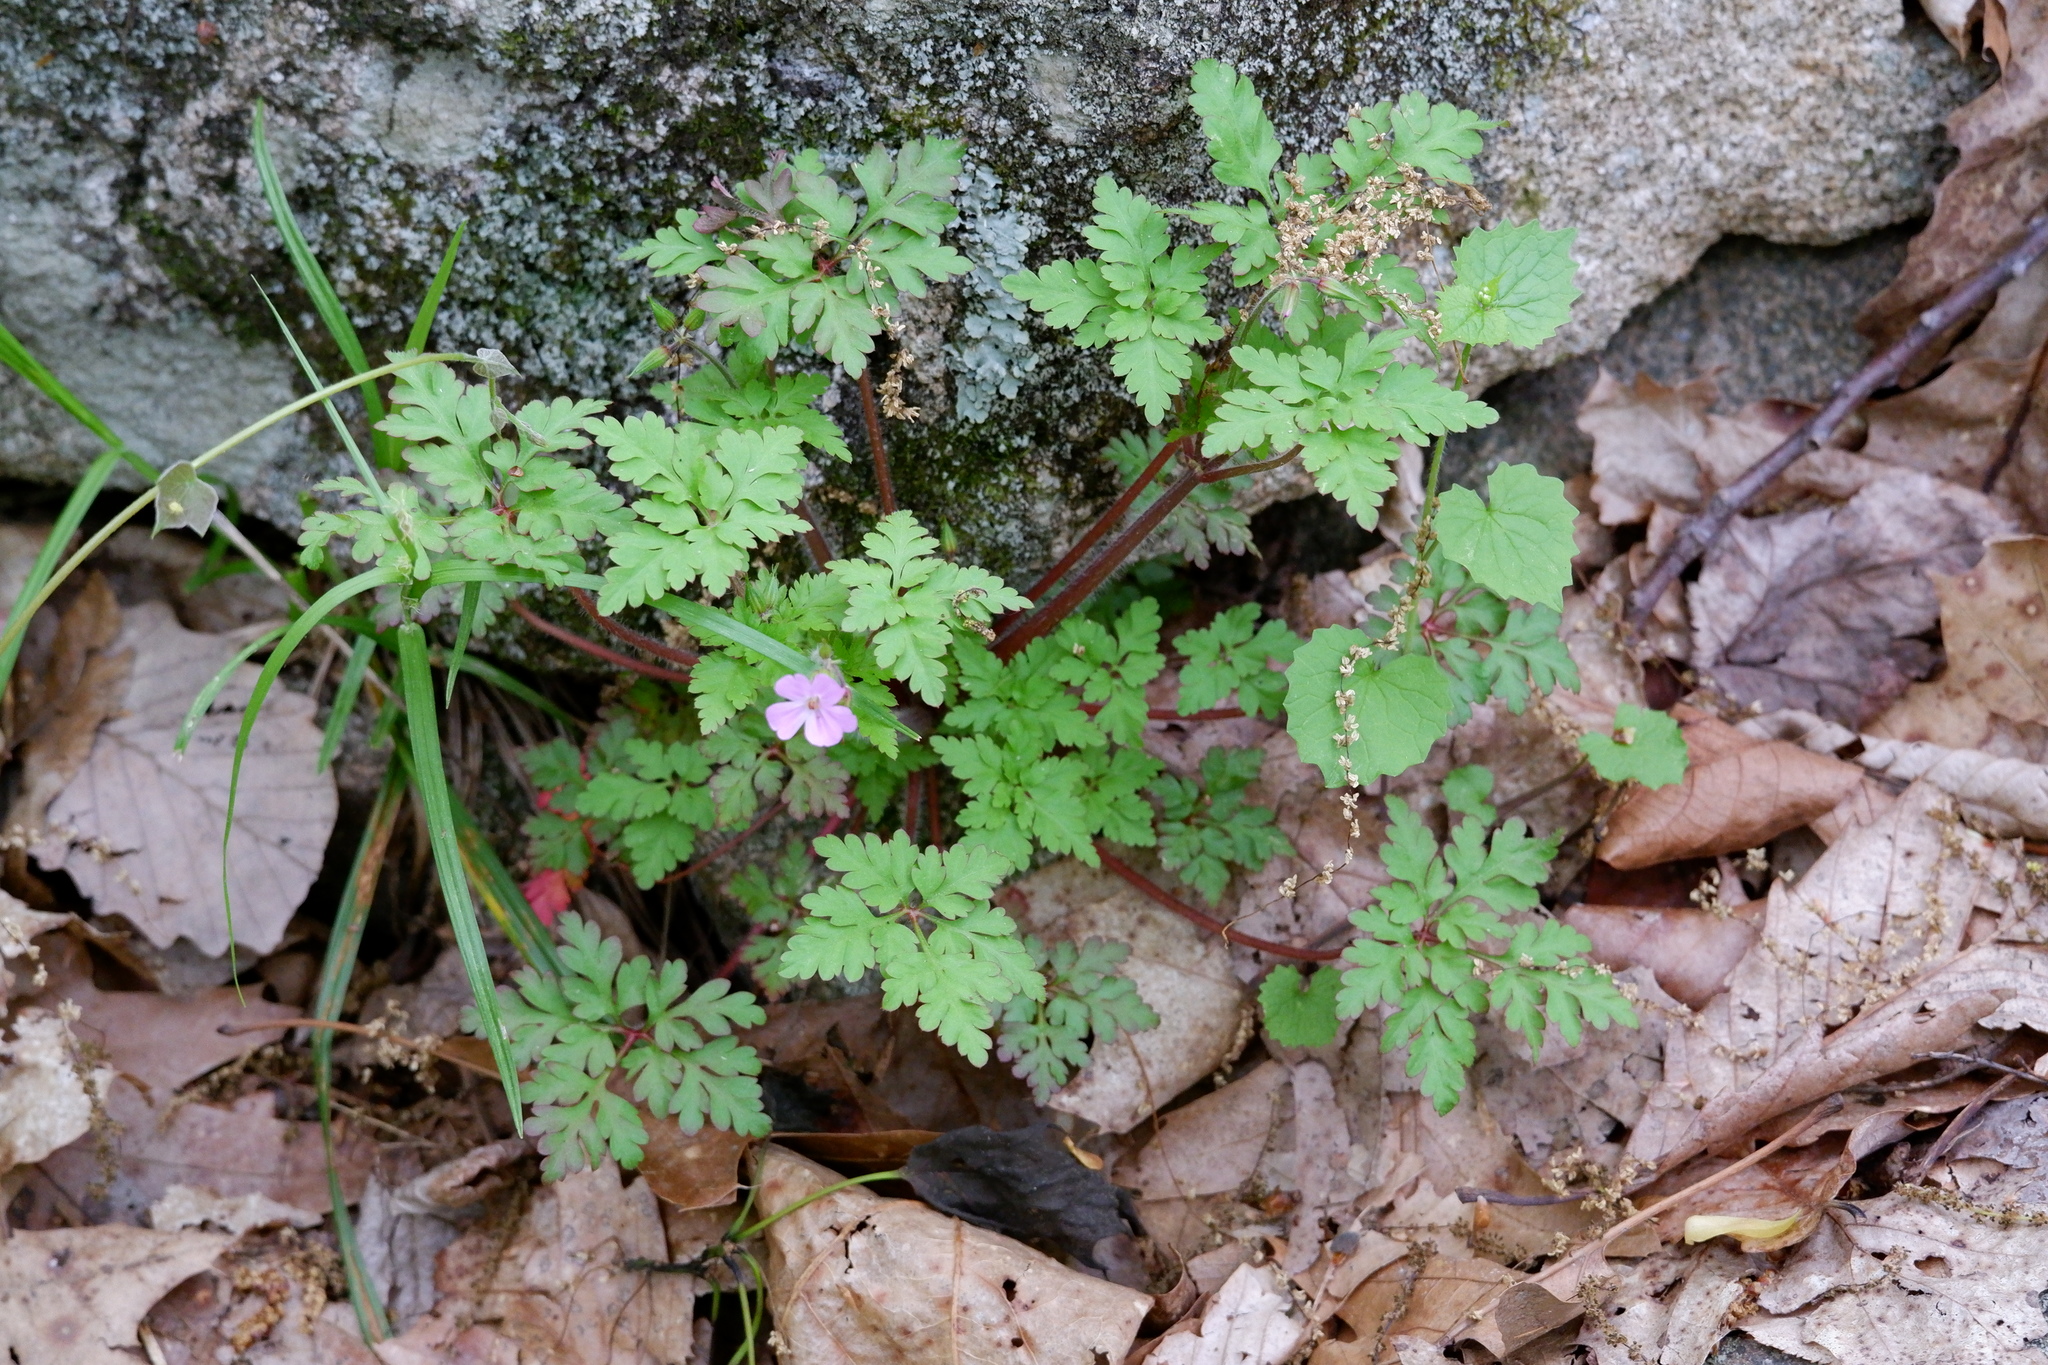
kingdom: Plantae
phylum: Tracheophyta
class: Magnoliopsida
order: Geraniales
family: Geraniaceae
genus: Geranium
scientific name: Geranium robertianum
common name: Herb-robert
